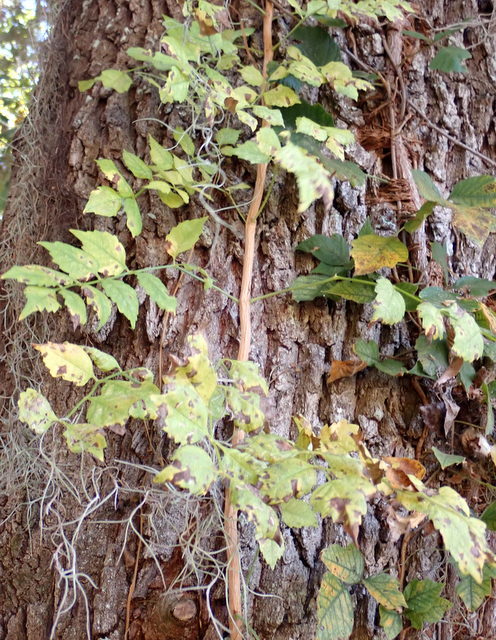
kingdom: Plantae
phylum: Tracheophyta
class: Magnoliopsida
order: Lamiales
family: Bignoniaceae
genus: Campsis
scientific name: Campsis radicans
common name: Trumpet-creeper
